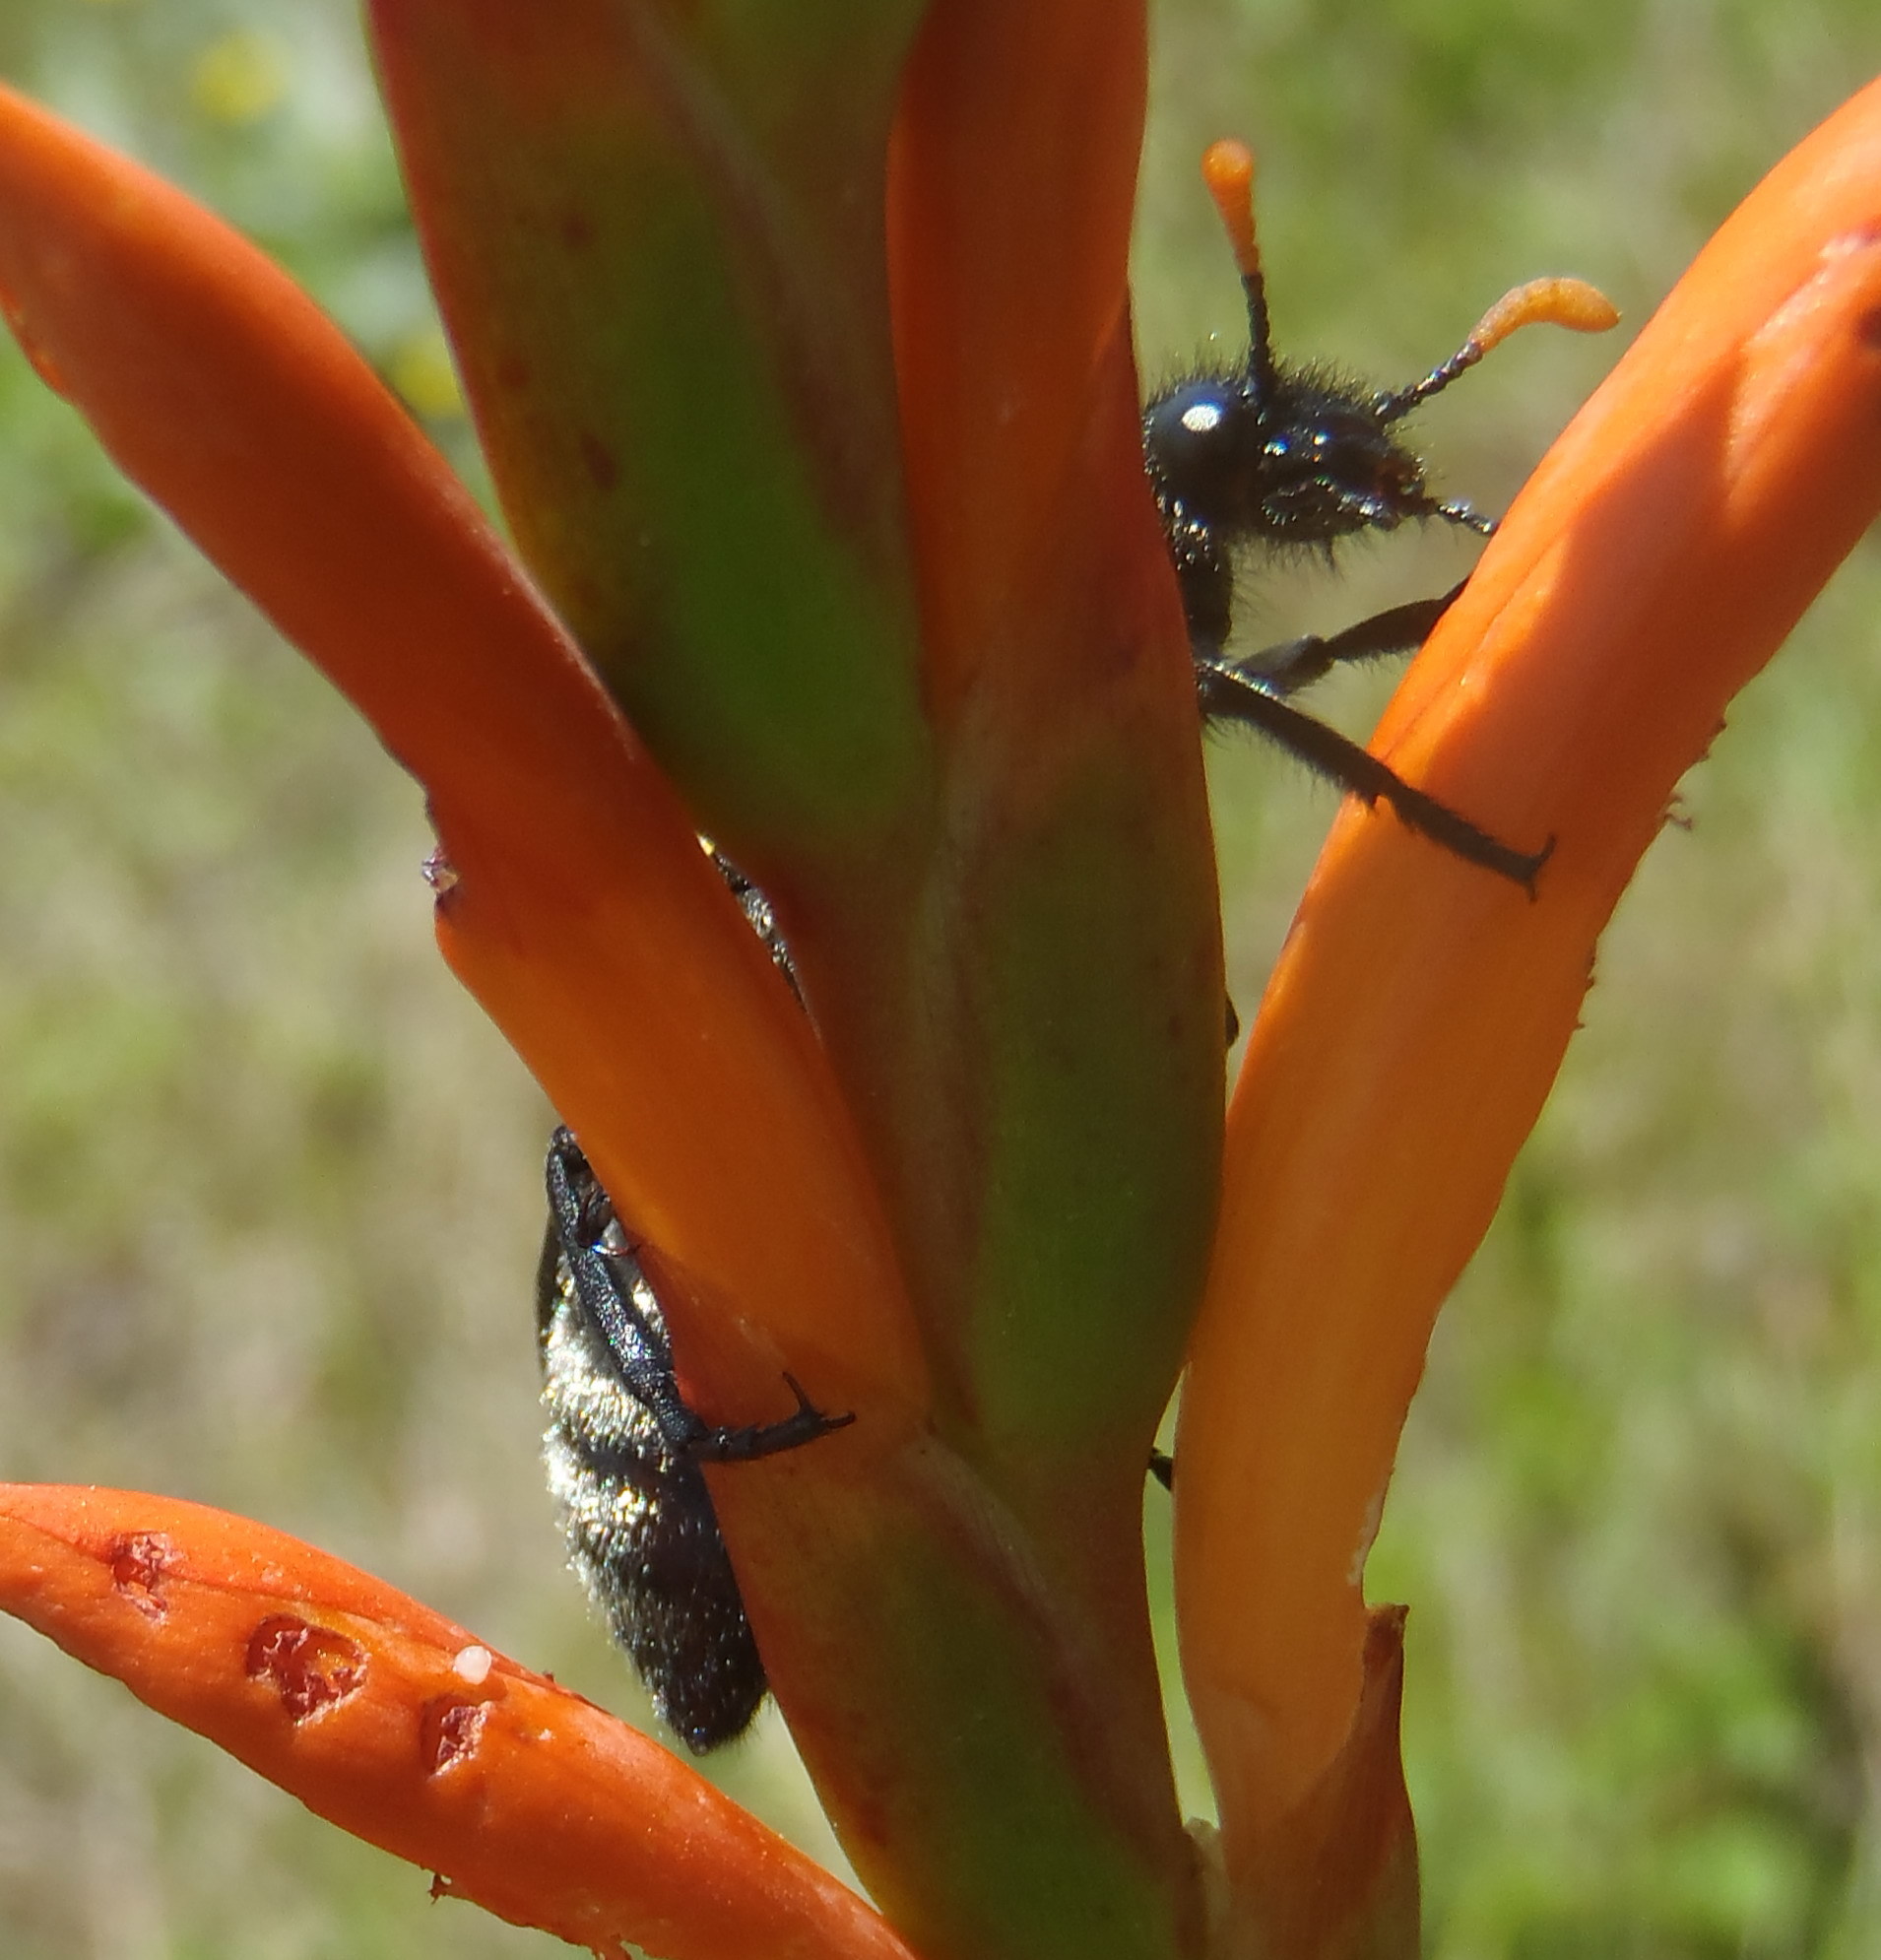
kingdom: Animalia
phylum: Arthropoda
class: Insecta
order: Coleoptera
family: Meloidae
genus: Meloe
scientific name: Meloe lunata
